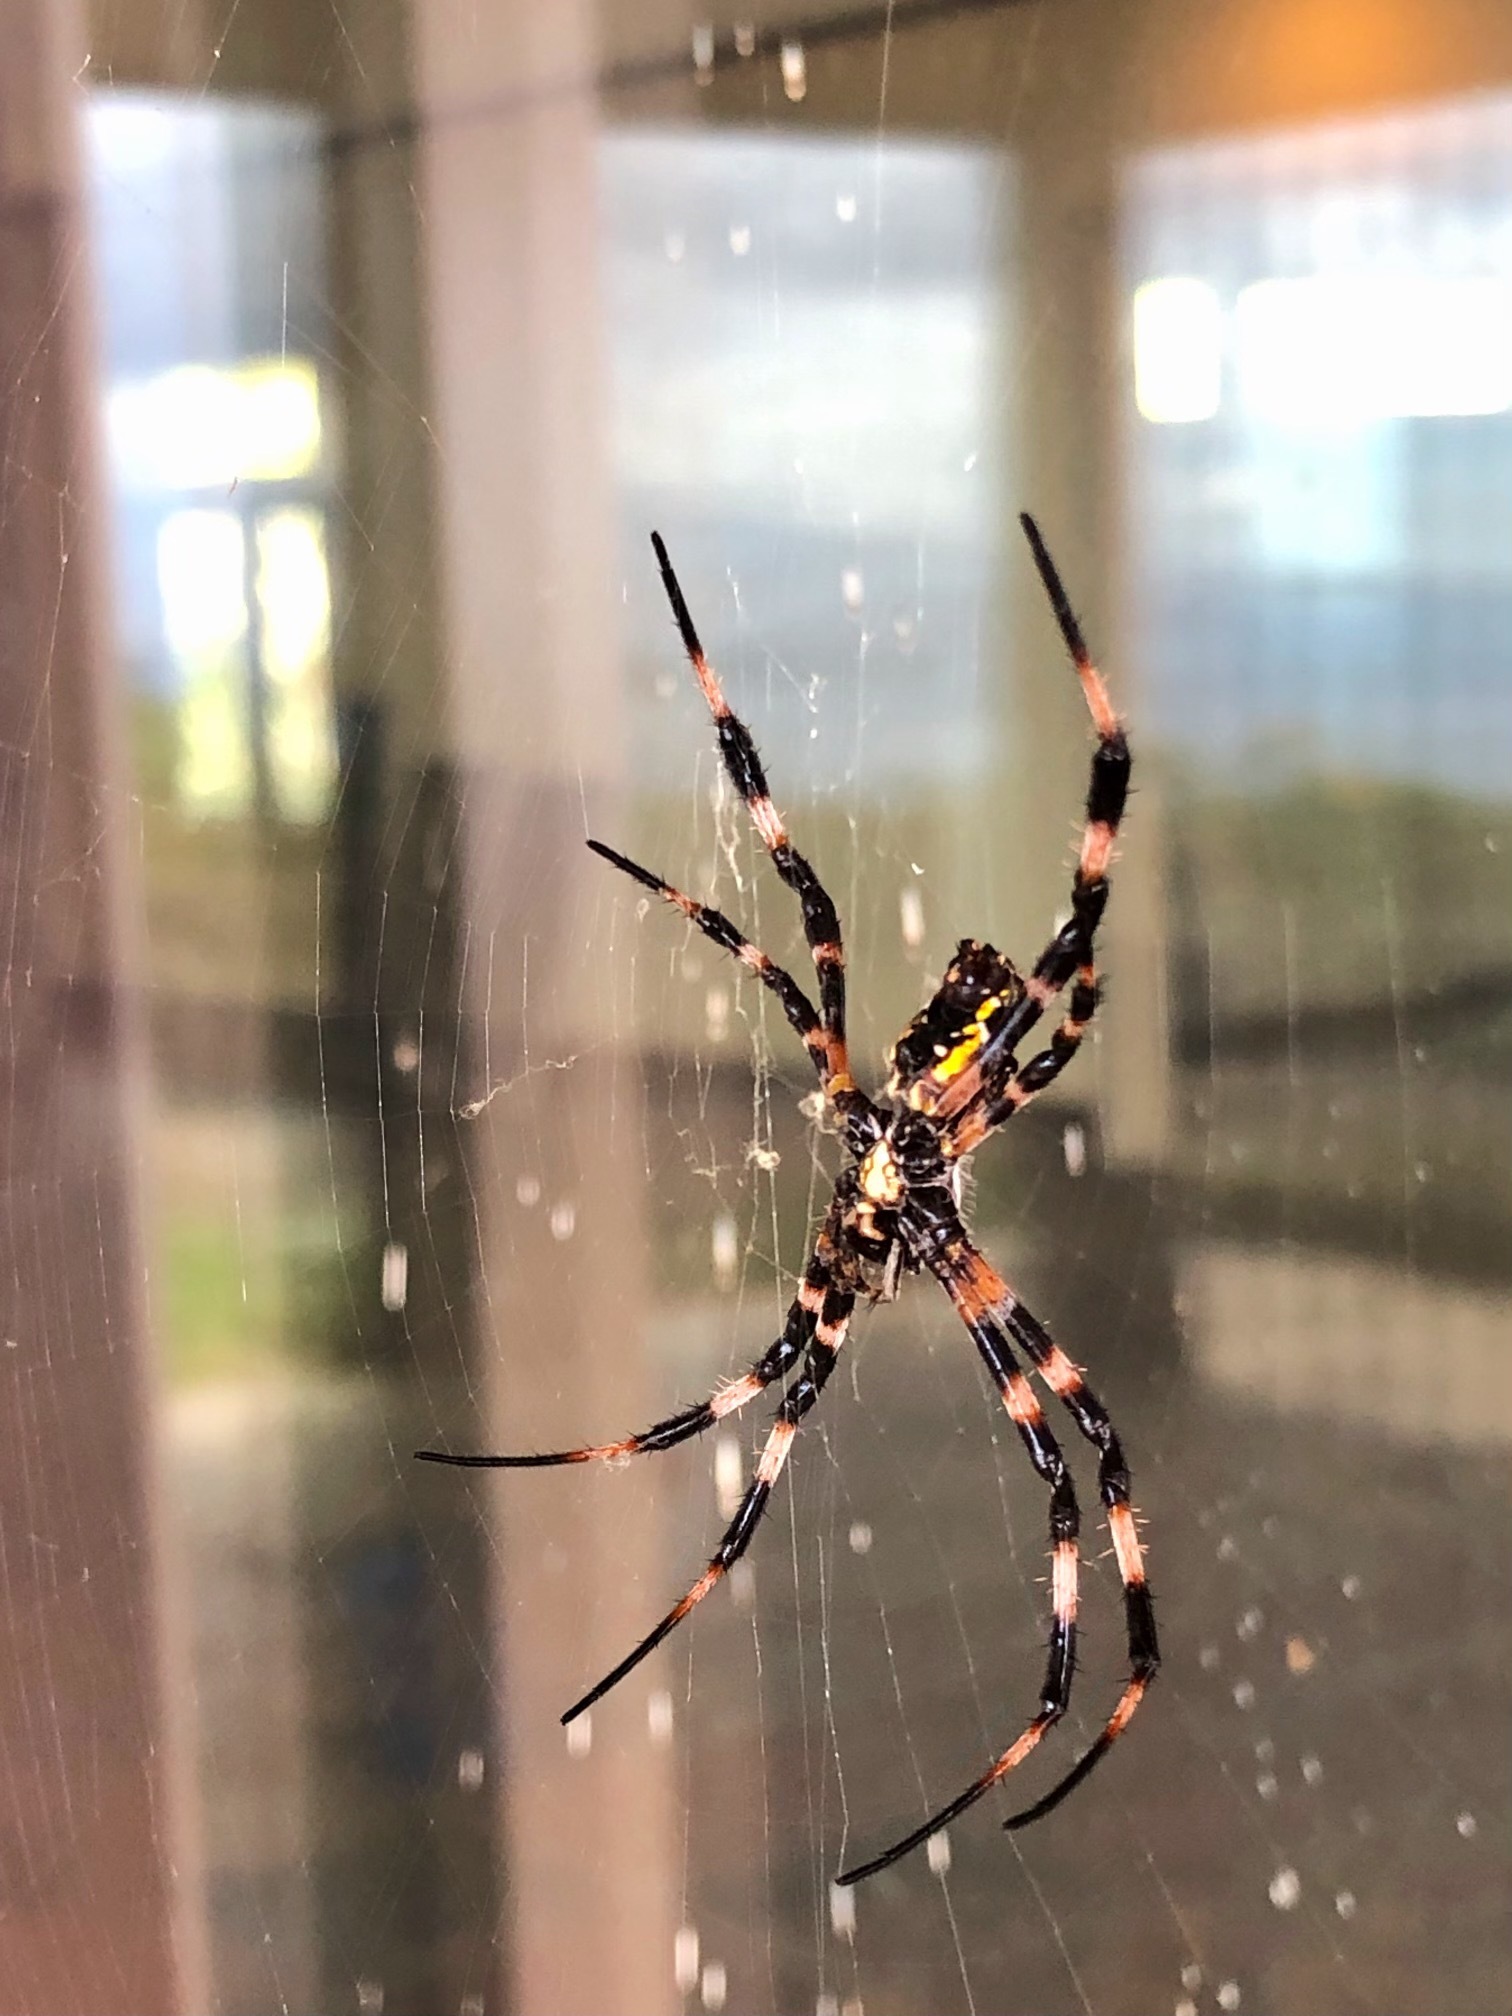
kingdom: Animalia
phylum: Arthropoda
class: Arachnida
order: Araneae
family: Araneidae
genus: Argiope
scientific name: Argiope appensa
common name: Garden spider
